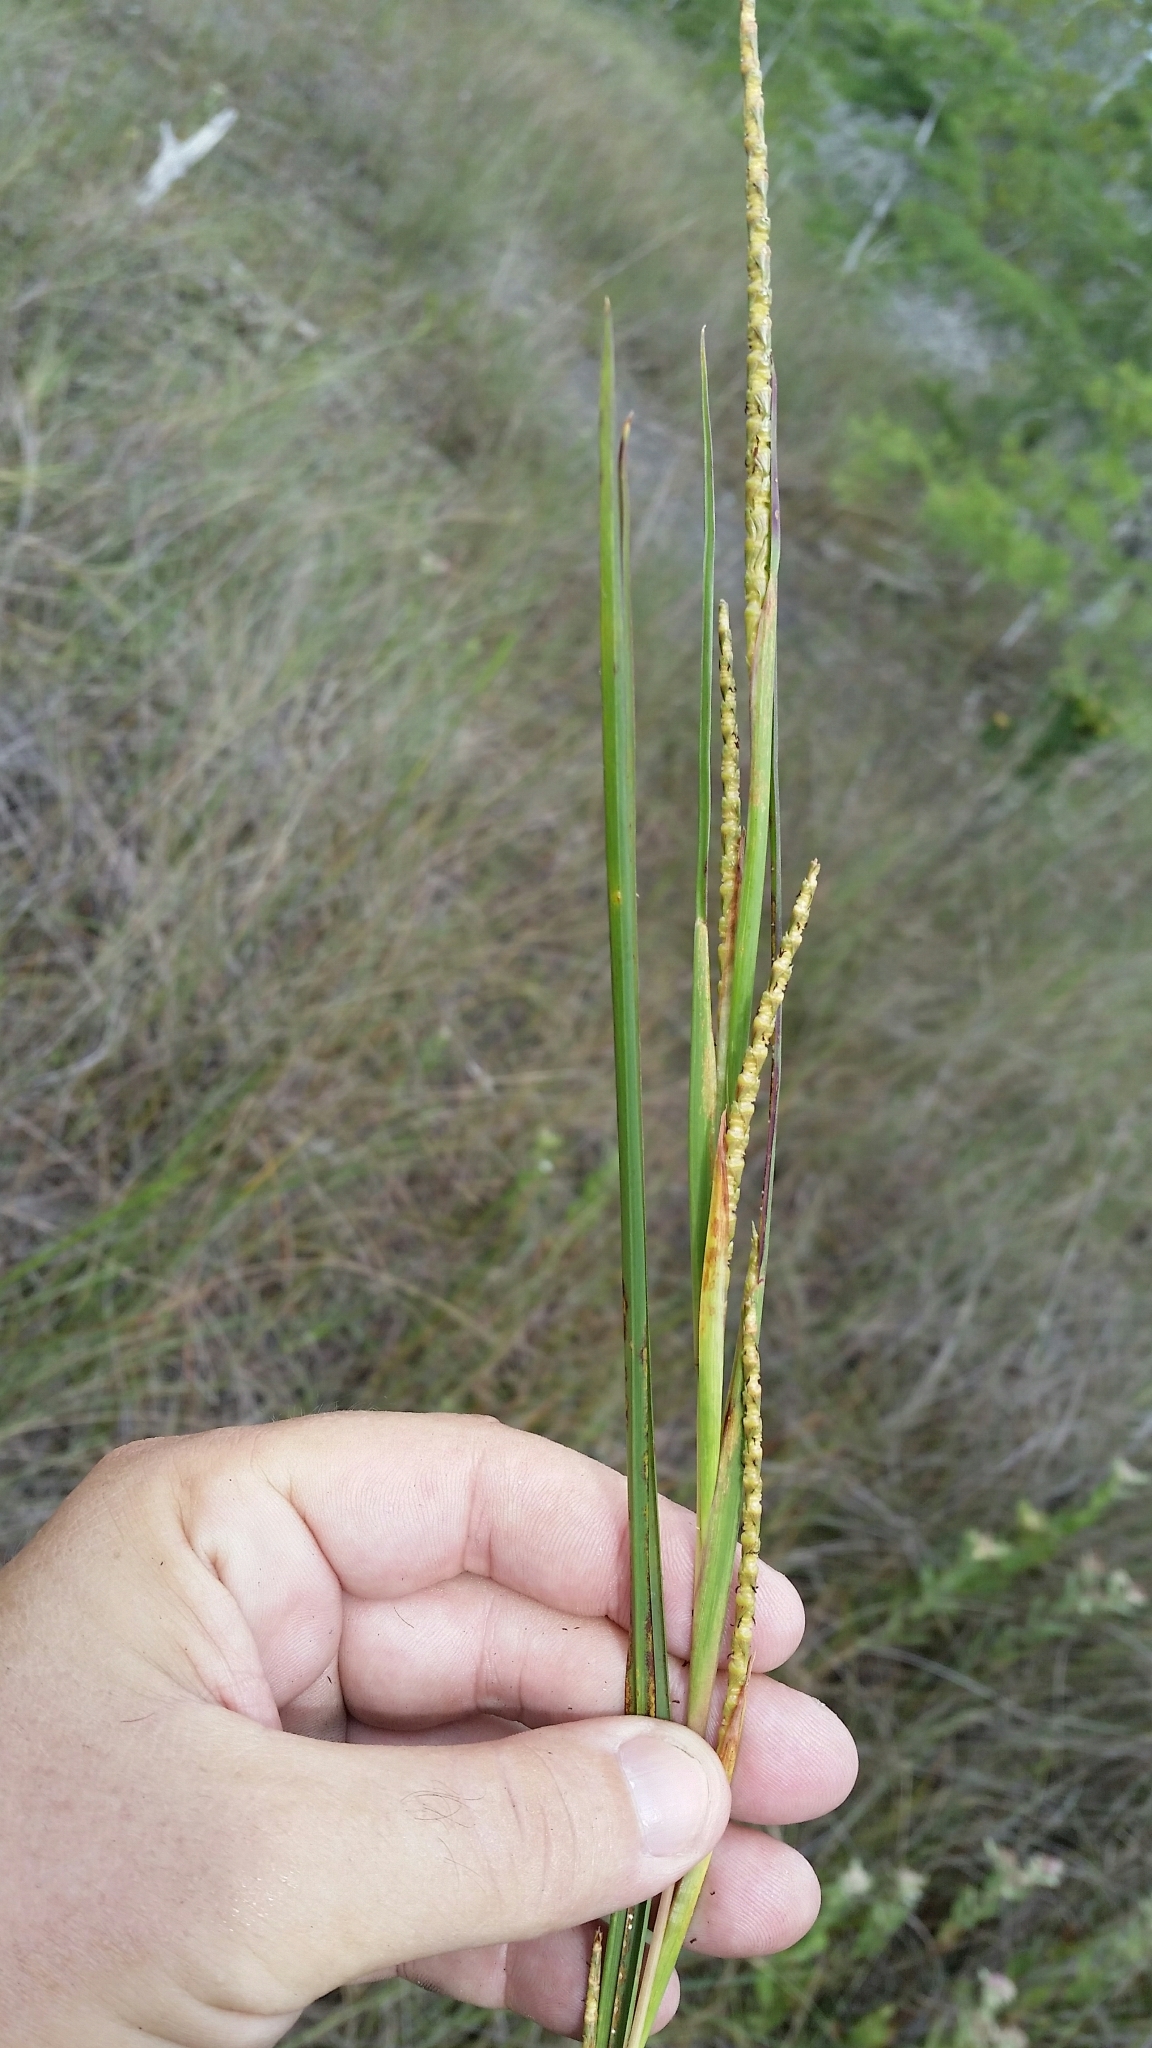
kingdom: Plantae
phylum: Tracheophyta
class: Liliopsida
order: Poales
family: Poaceae
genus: Rottboellia
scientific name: Rottboellia rugosa
